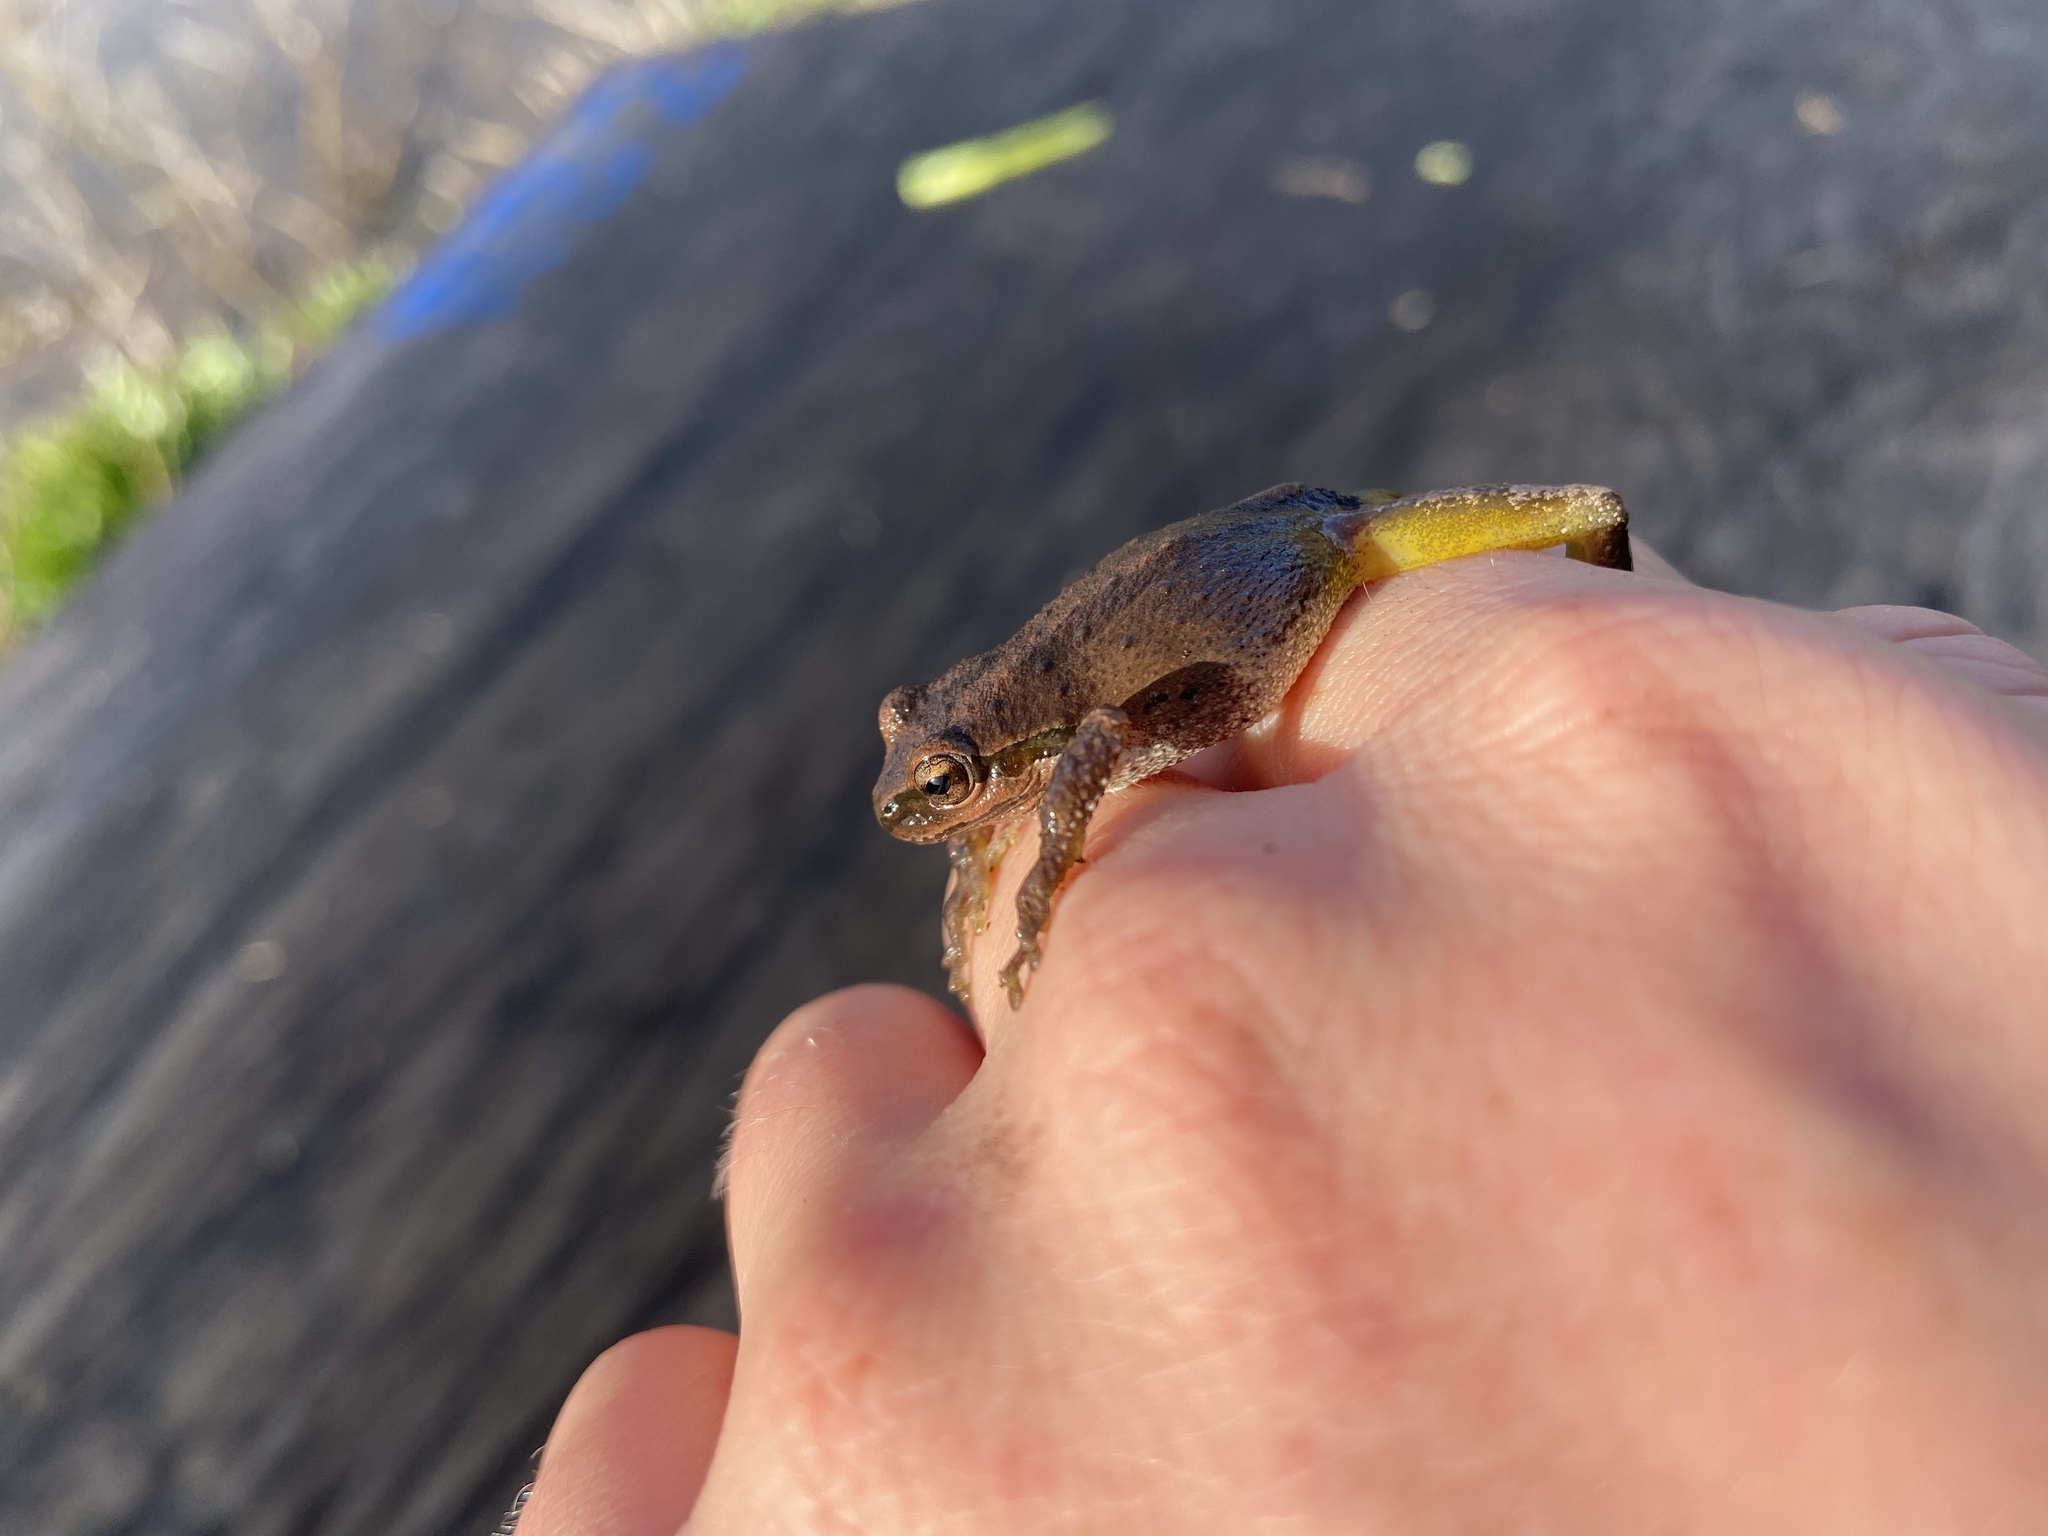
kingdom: Animalia
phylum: Chordata
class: Amphibia
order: Anura
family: Hylidae
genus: Pseudacris
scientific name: Pseudacris regilla
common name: Pacific chorus frog
